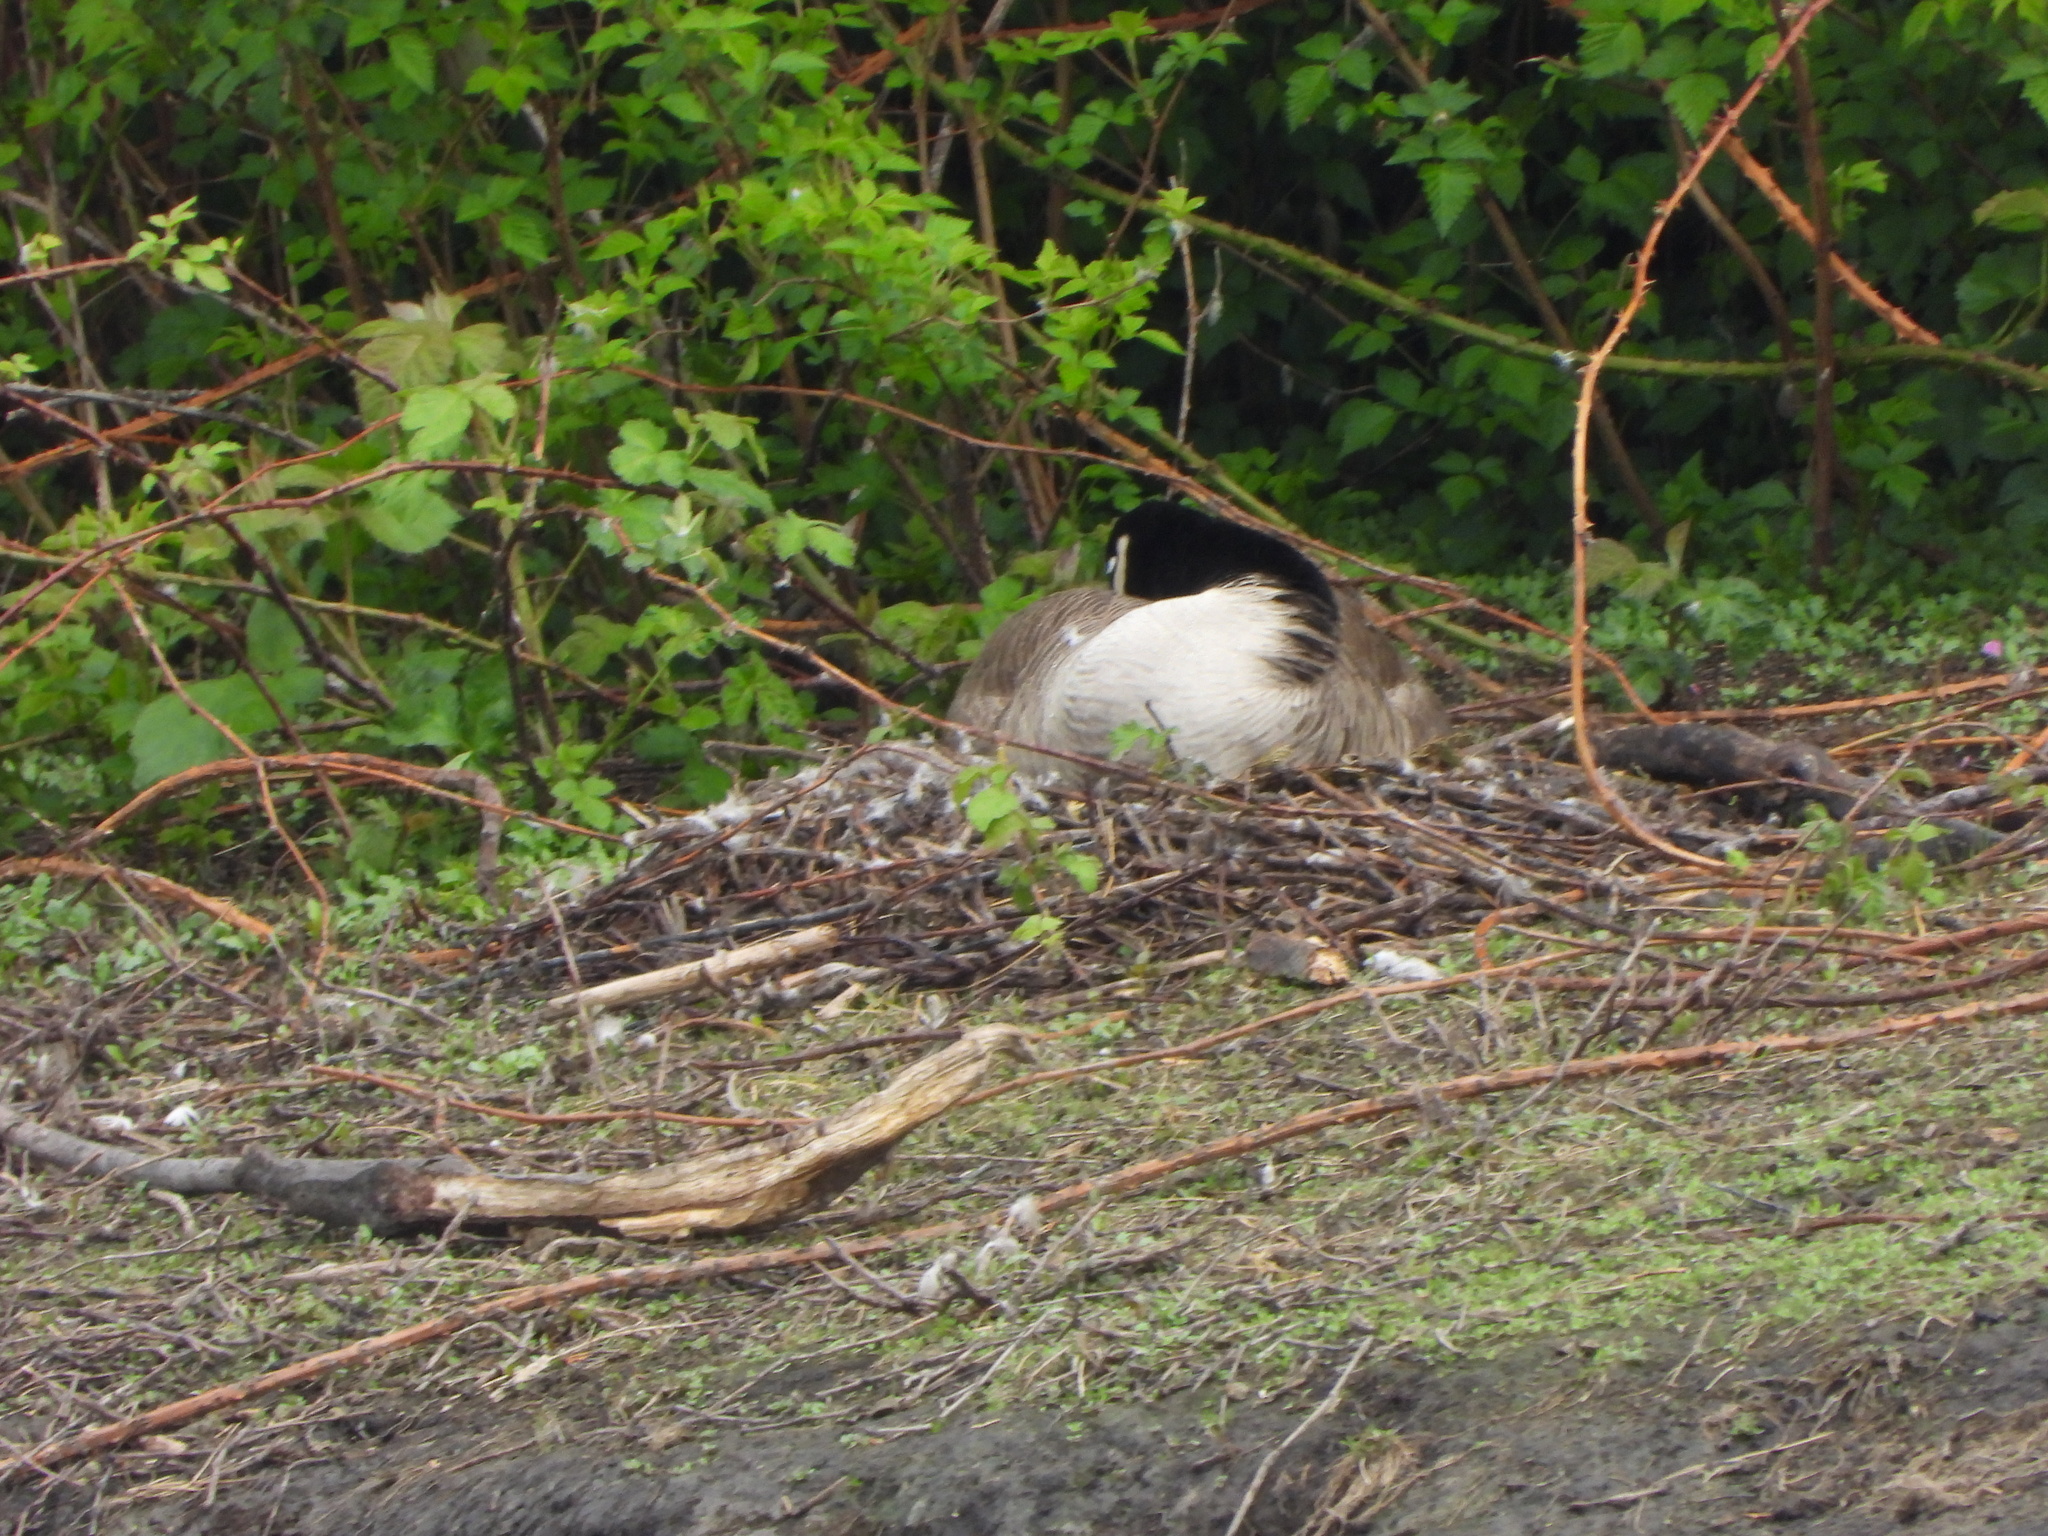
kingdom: Animalia
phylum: Chordata
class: Aves
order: Anseriformes
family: Anatidae
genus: Branta
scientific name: Branta canadensis
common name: Canada goose
